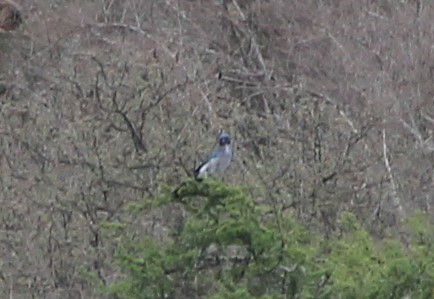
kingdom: Animalia
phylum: Chordata
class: Aves
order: Passeriformes
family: Corvidae
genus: Aphelocoma
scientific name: Aphelocoma wollweberi
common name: Mexican jay
